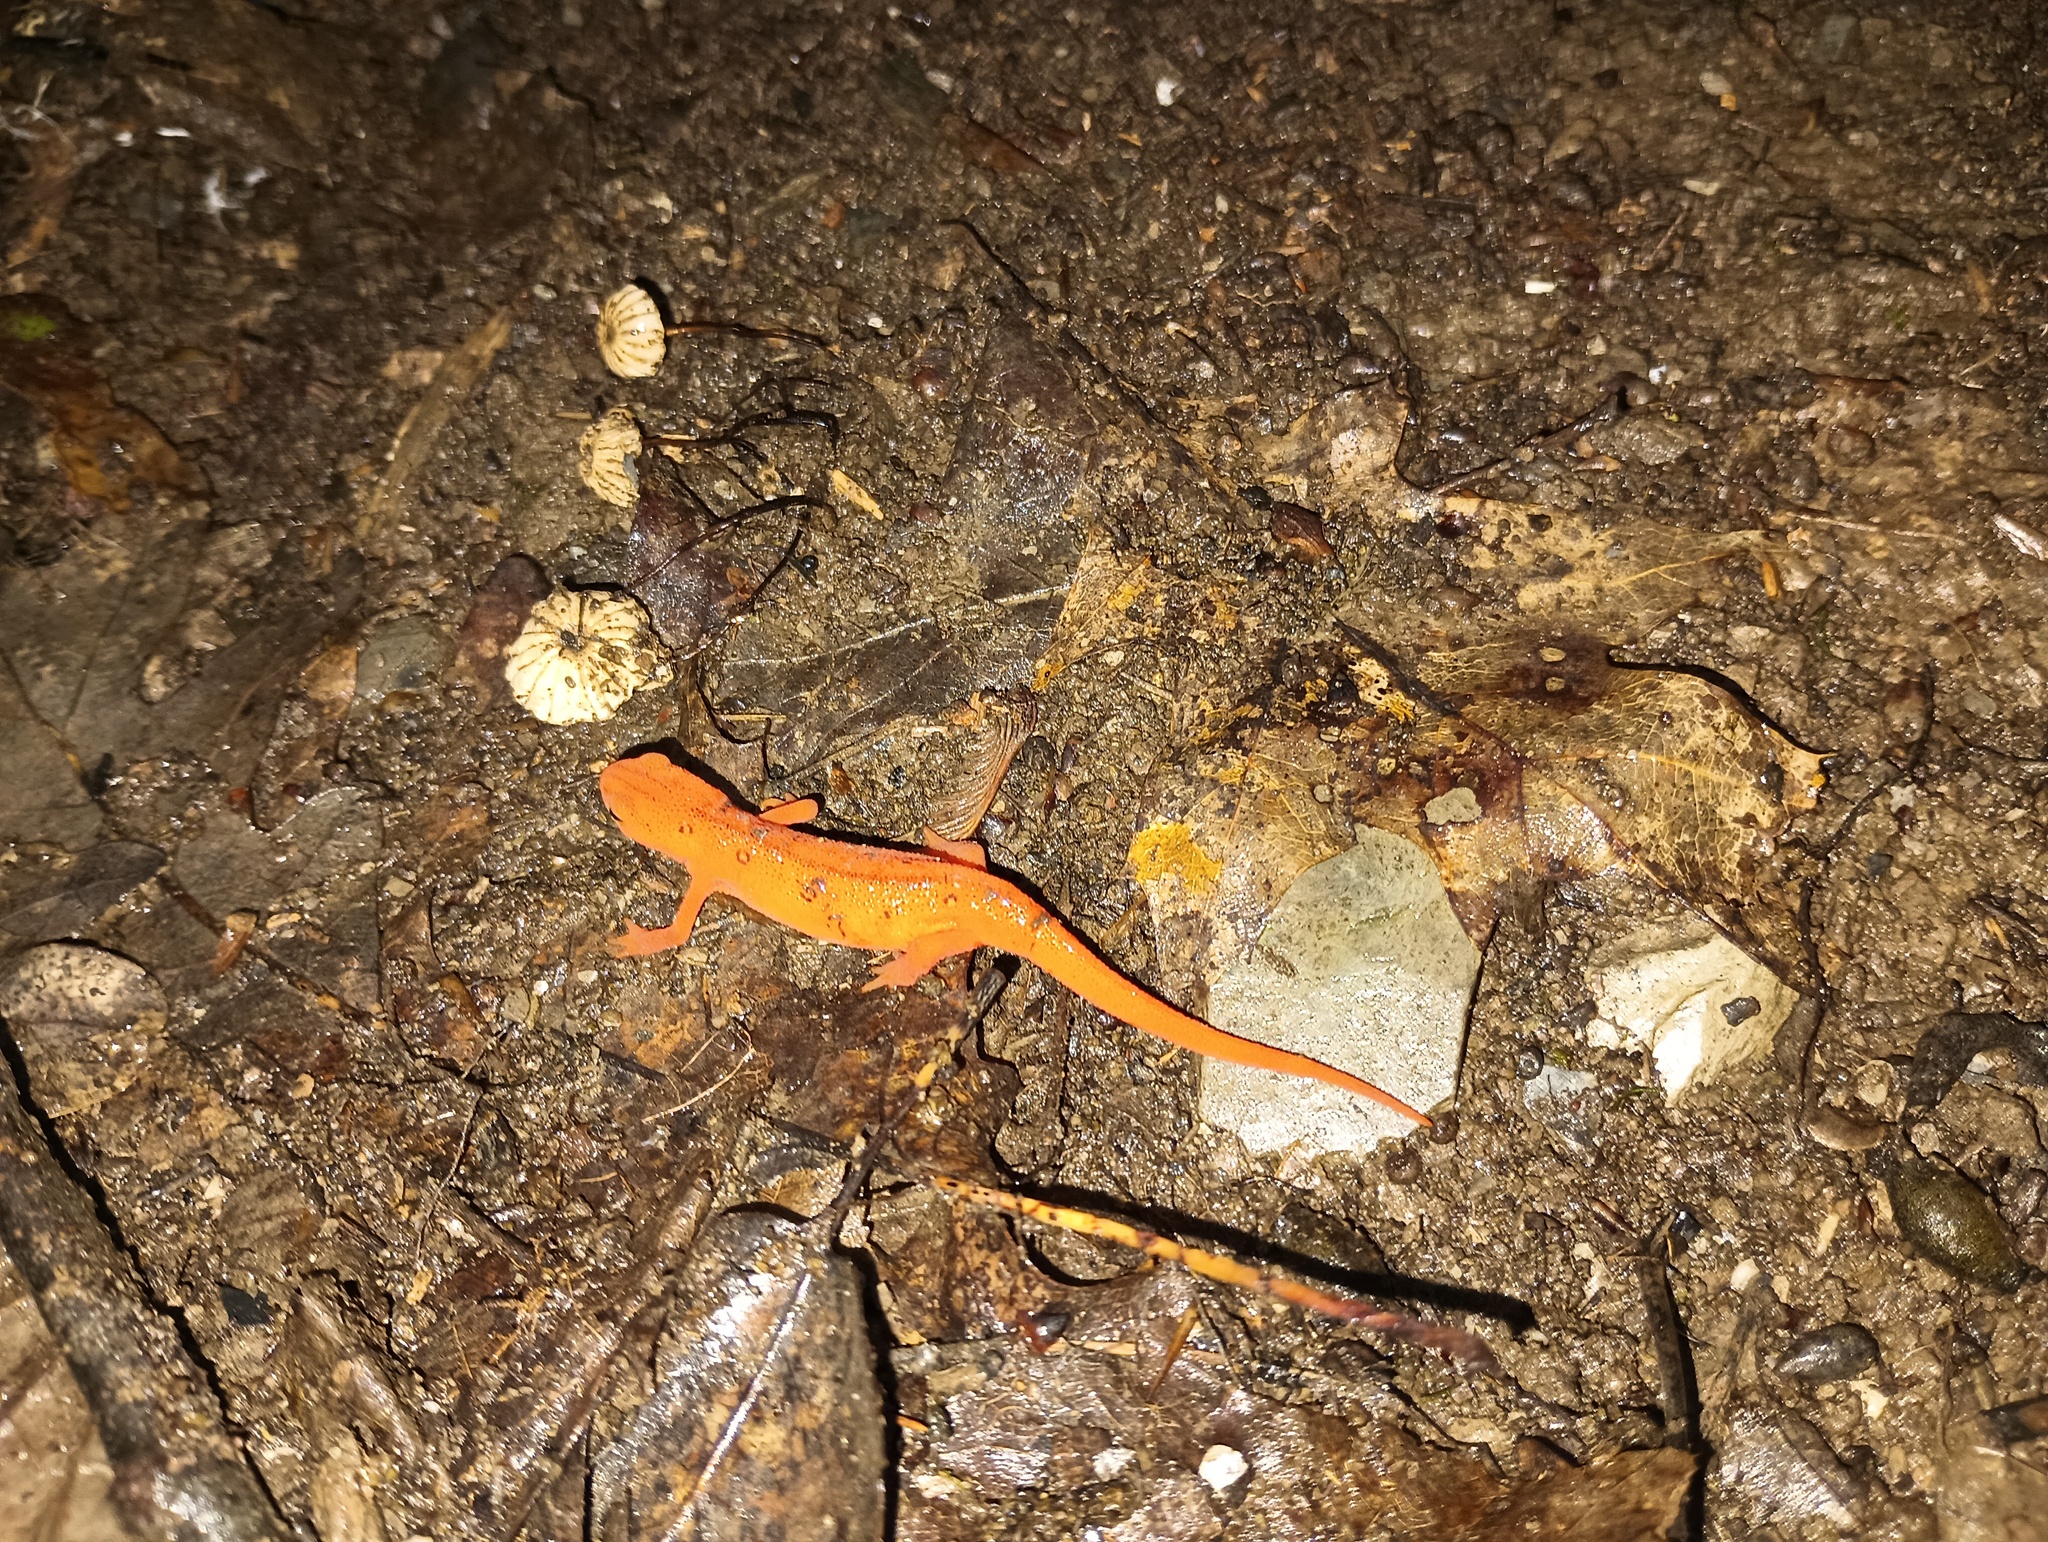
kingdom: Animalia
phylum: Chordata
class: Amphibia
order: Caudata
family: Salamandridae
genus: Notophthalmus
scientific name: Notophthalmus viridescens
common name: Eastern newt
